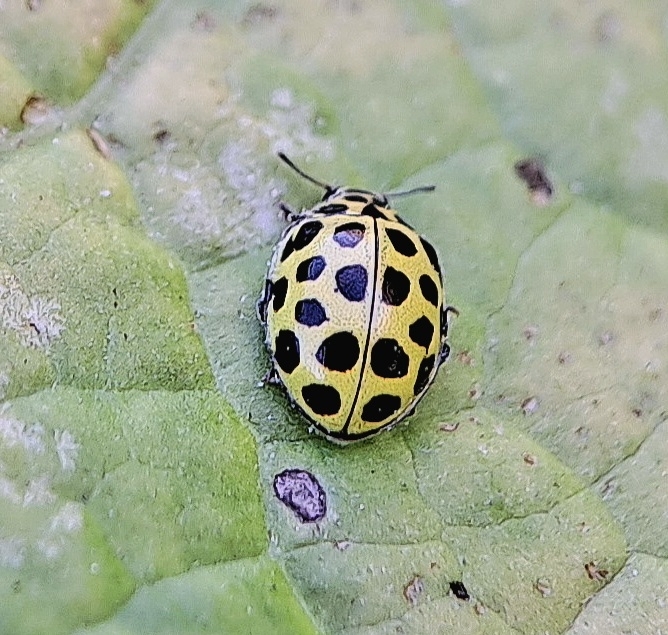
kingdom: Animalia
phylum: Arthropoda
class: Insecta
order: Coleoptera
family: Coccinellidae
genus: Psyllobora
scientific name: Psyllobora vigintiduopunctata
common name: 22-spot ladybird
